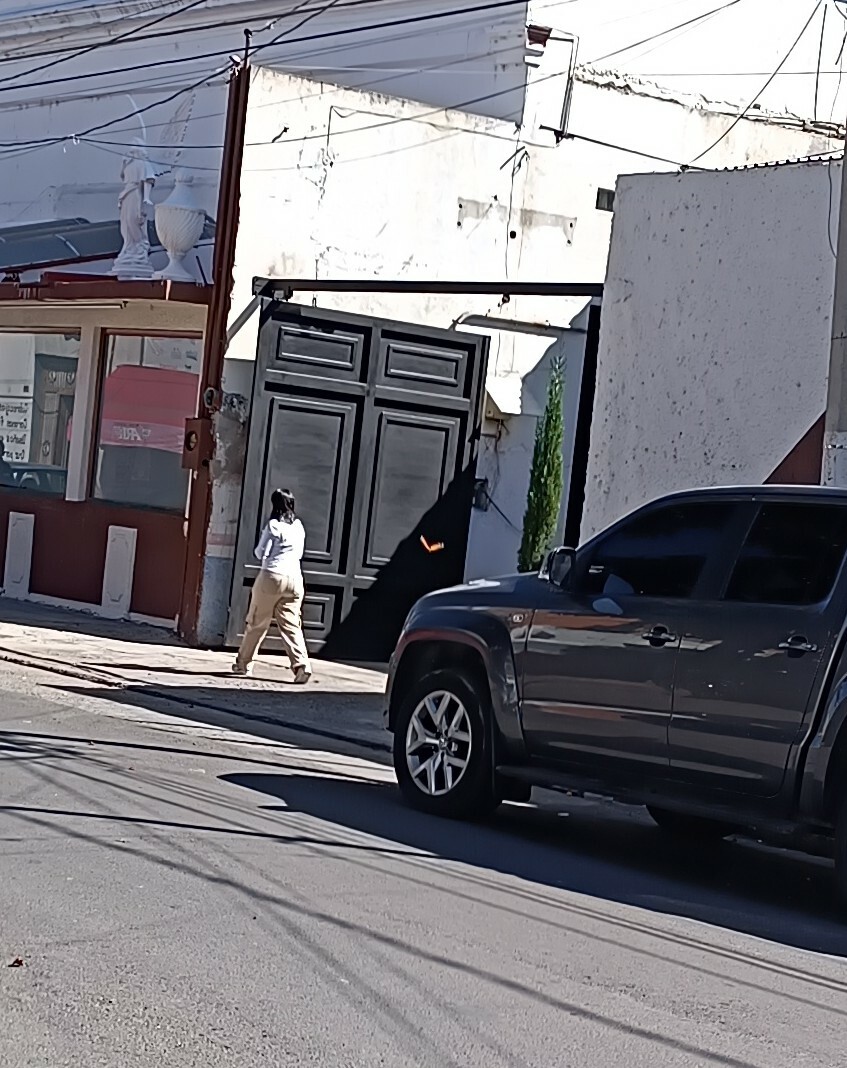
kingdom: Animalia
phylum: Arthropoda
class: Insecta
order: Lepidoptera
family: Nymphalidae
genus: Danaus
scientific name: Danaus plexippus
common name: Monarch
